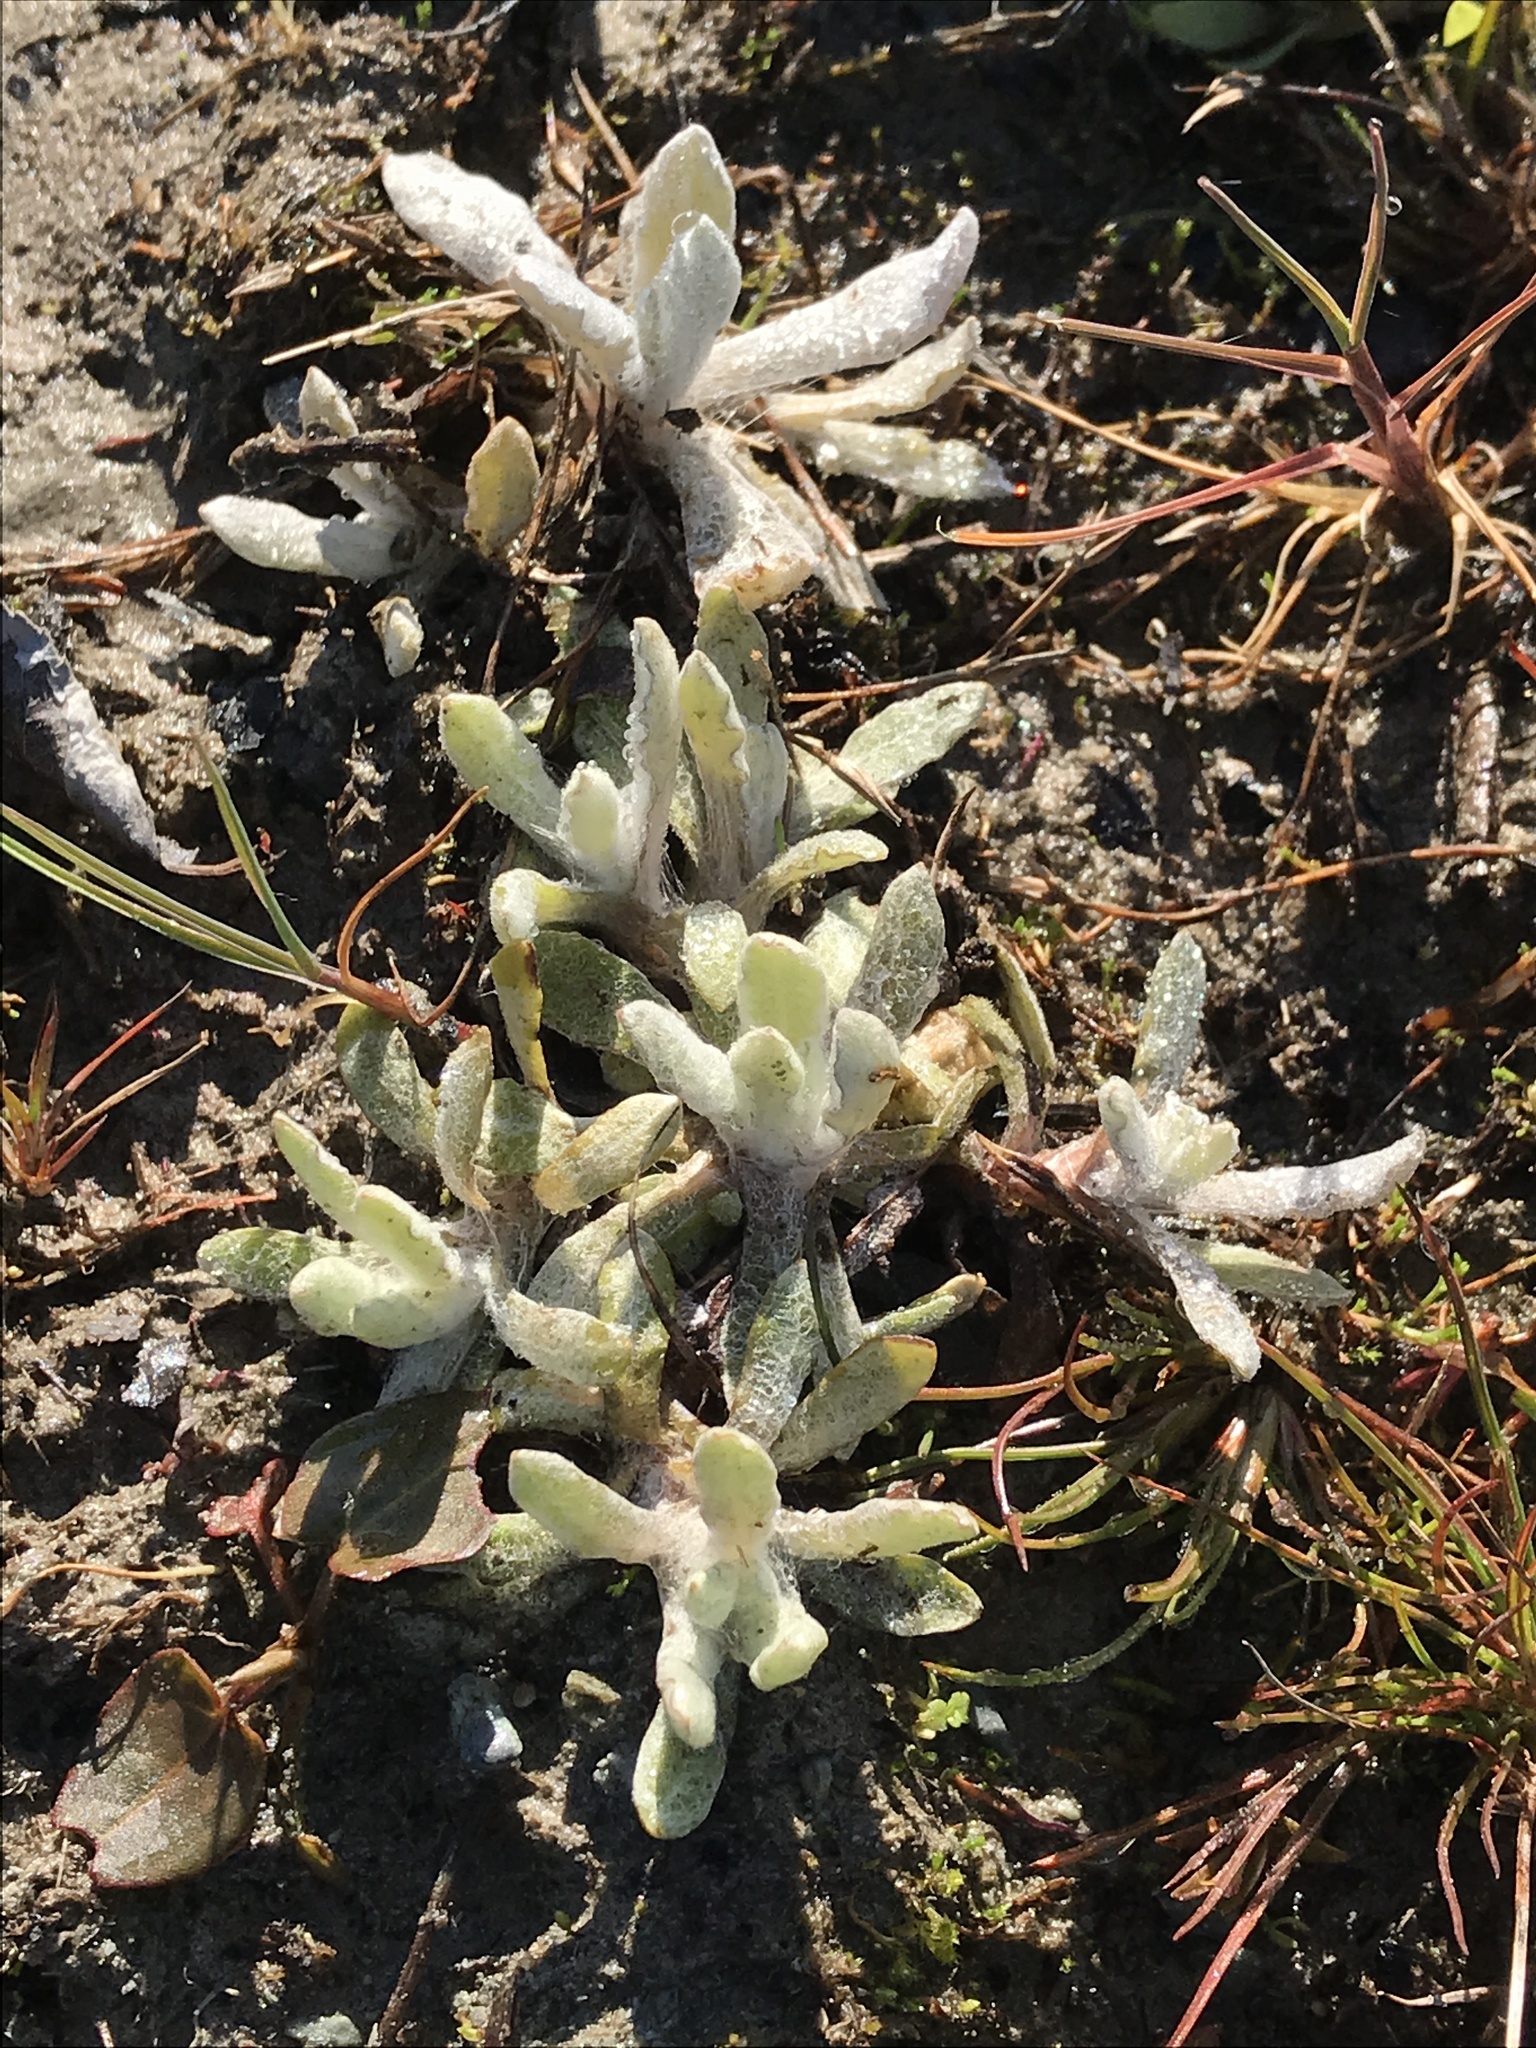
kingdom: Plantae
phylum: Tracheophyta
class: Magnoliopsida
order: Asterales
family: Asteraceae
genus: Helichrysum
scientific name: Helichrysum luteoalbum
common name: Daisy
